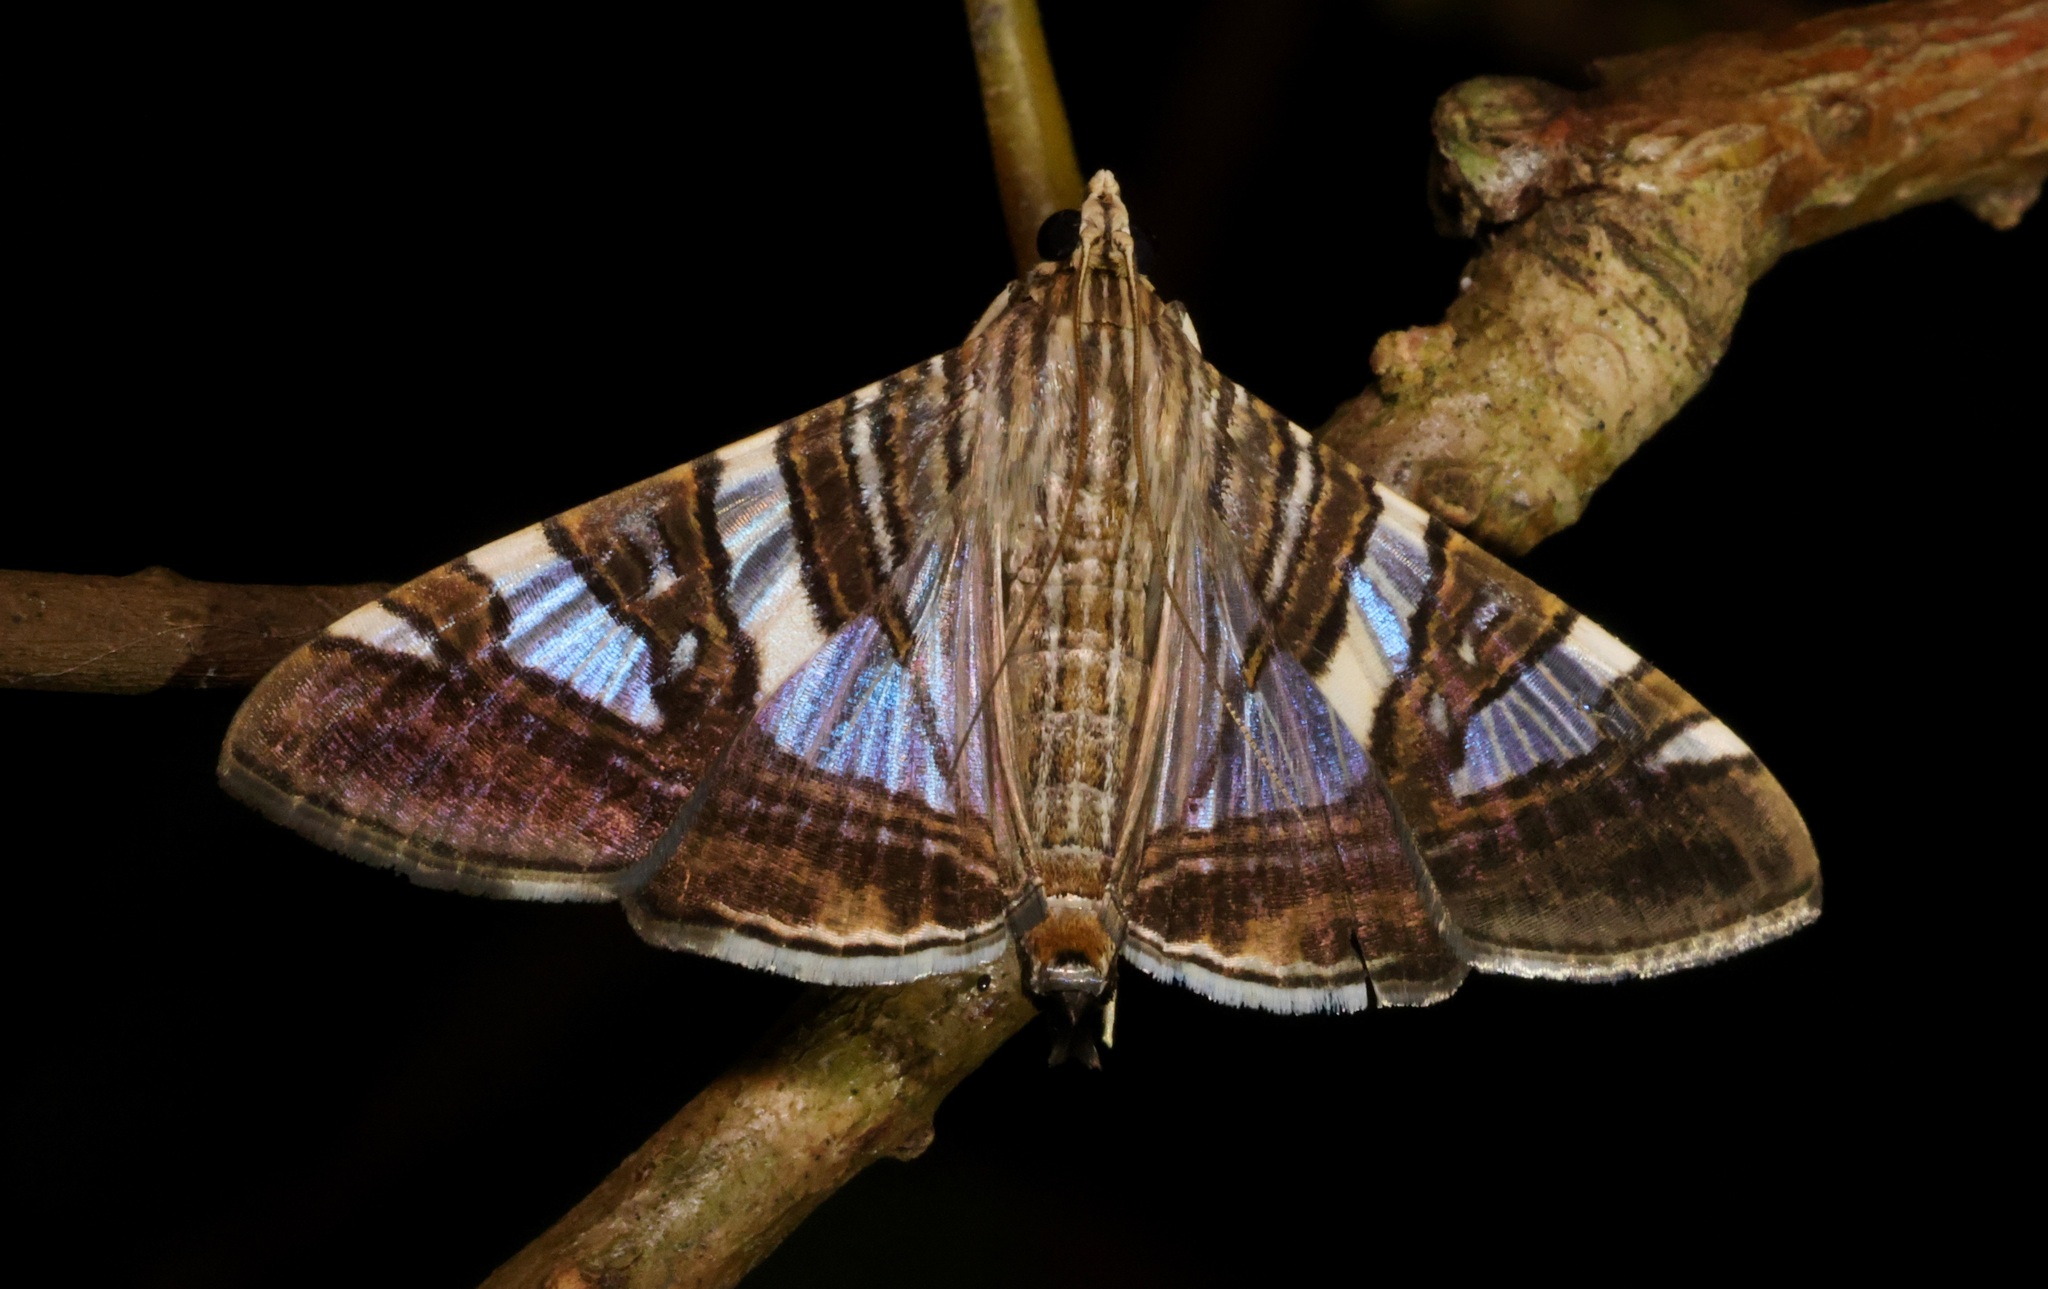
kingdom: Animalia
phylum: Arthropoda
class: Insecta
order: Lepidoptera
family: Crambidae
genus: Glyphodes
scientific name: Glyphodes stolalis
